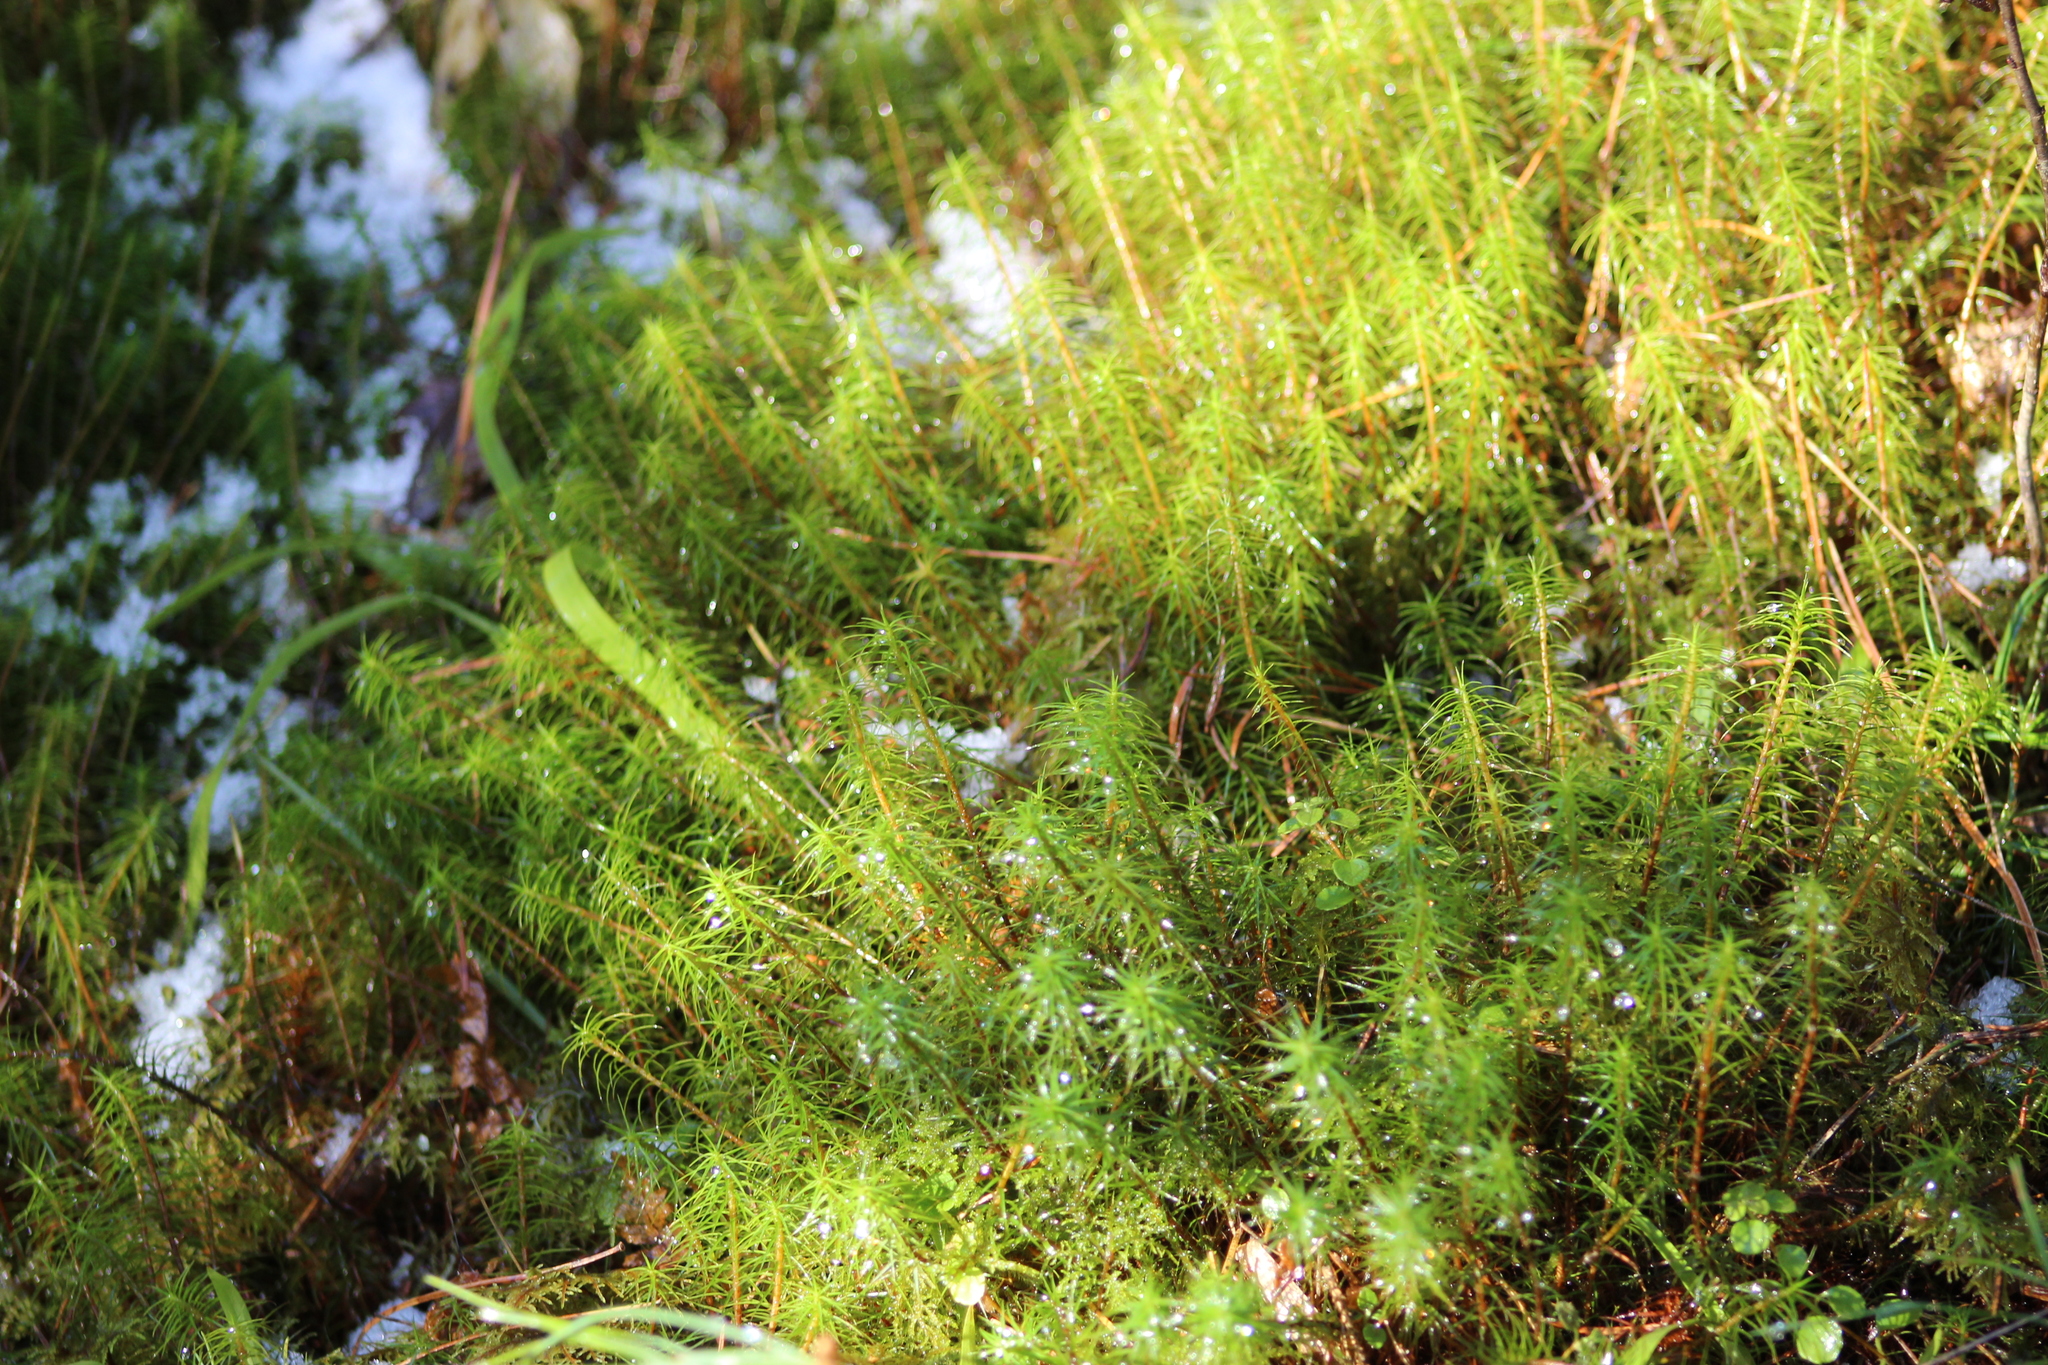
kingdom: Plantae
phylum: Bryophyta
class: Polytrichopsida
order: Polytrichales
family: Polytrichaceae
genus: Polytrichum
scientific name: Polytrichum commune
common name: Common haircap
